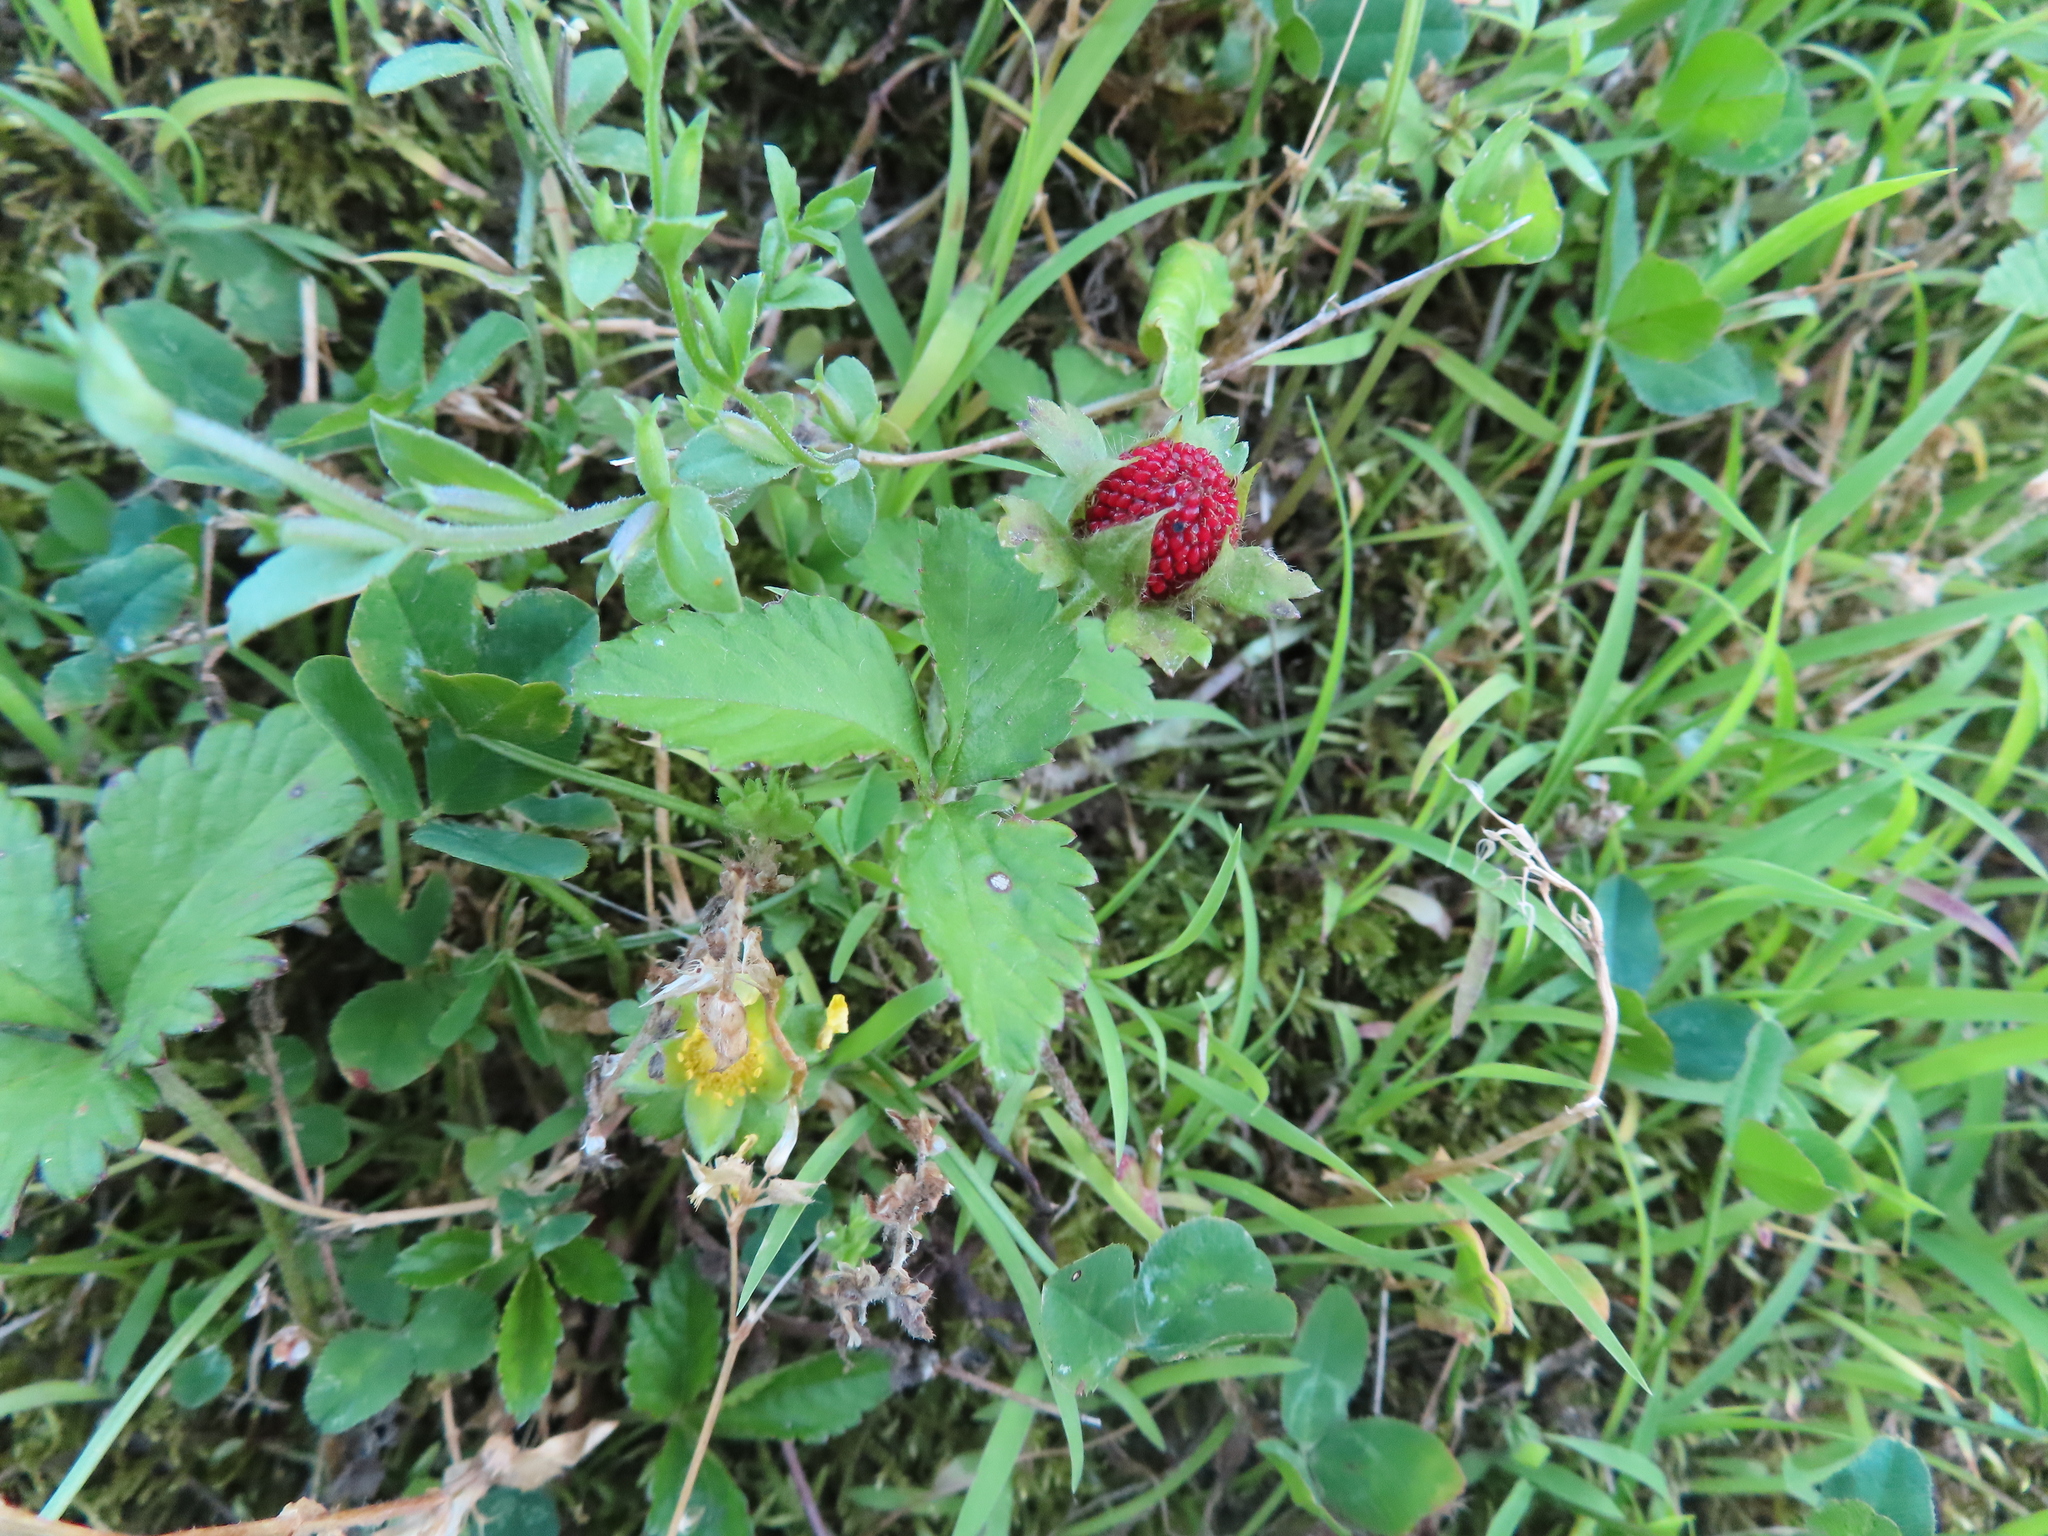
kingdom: Plantae
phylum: Tracheophyta
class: Magnoliopsida
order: Rosales
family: Rosaceae
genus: Potentilla
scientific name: Potentilla indica
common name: Yellow-flowered strawberry
